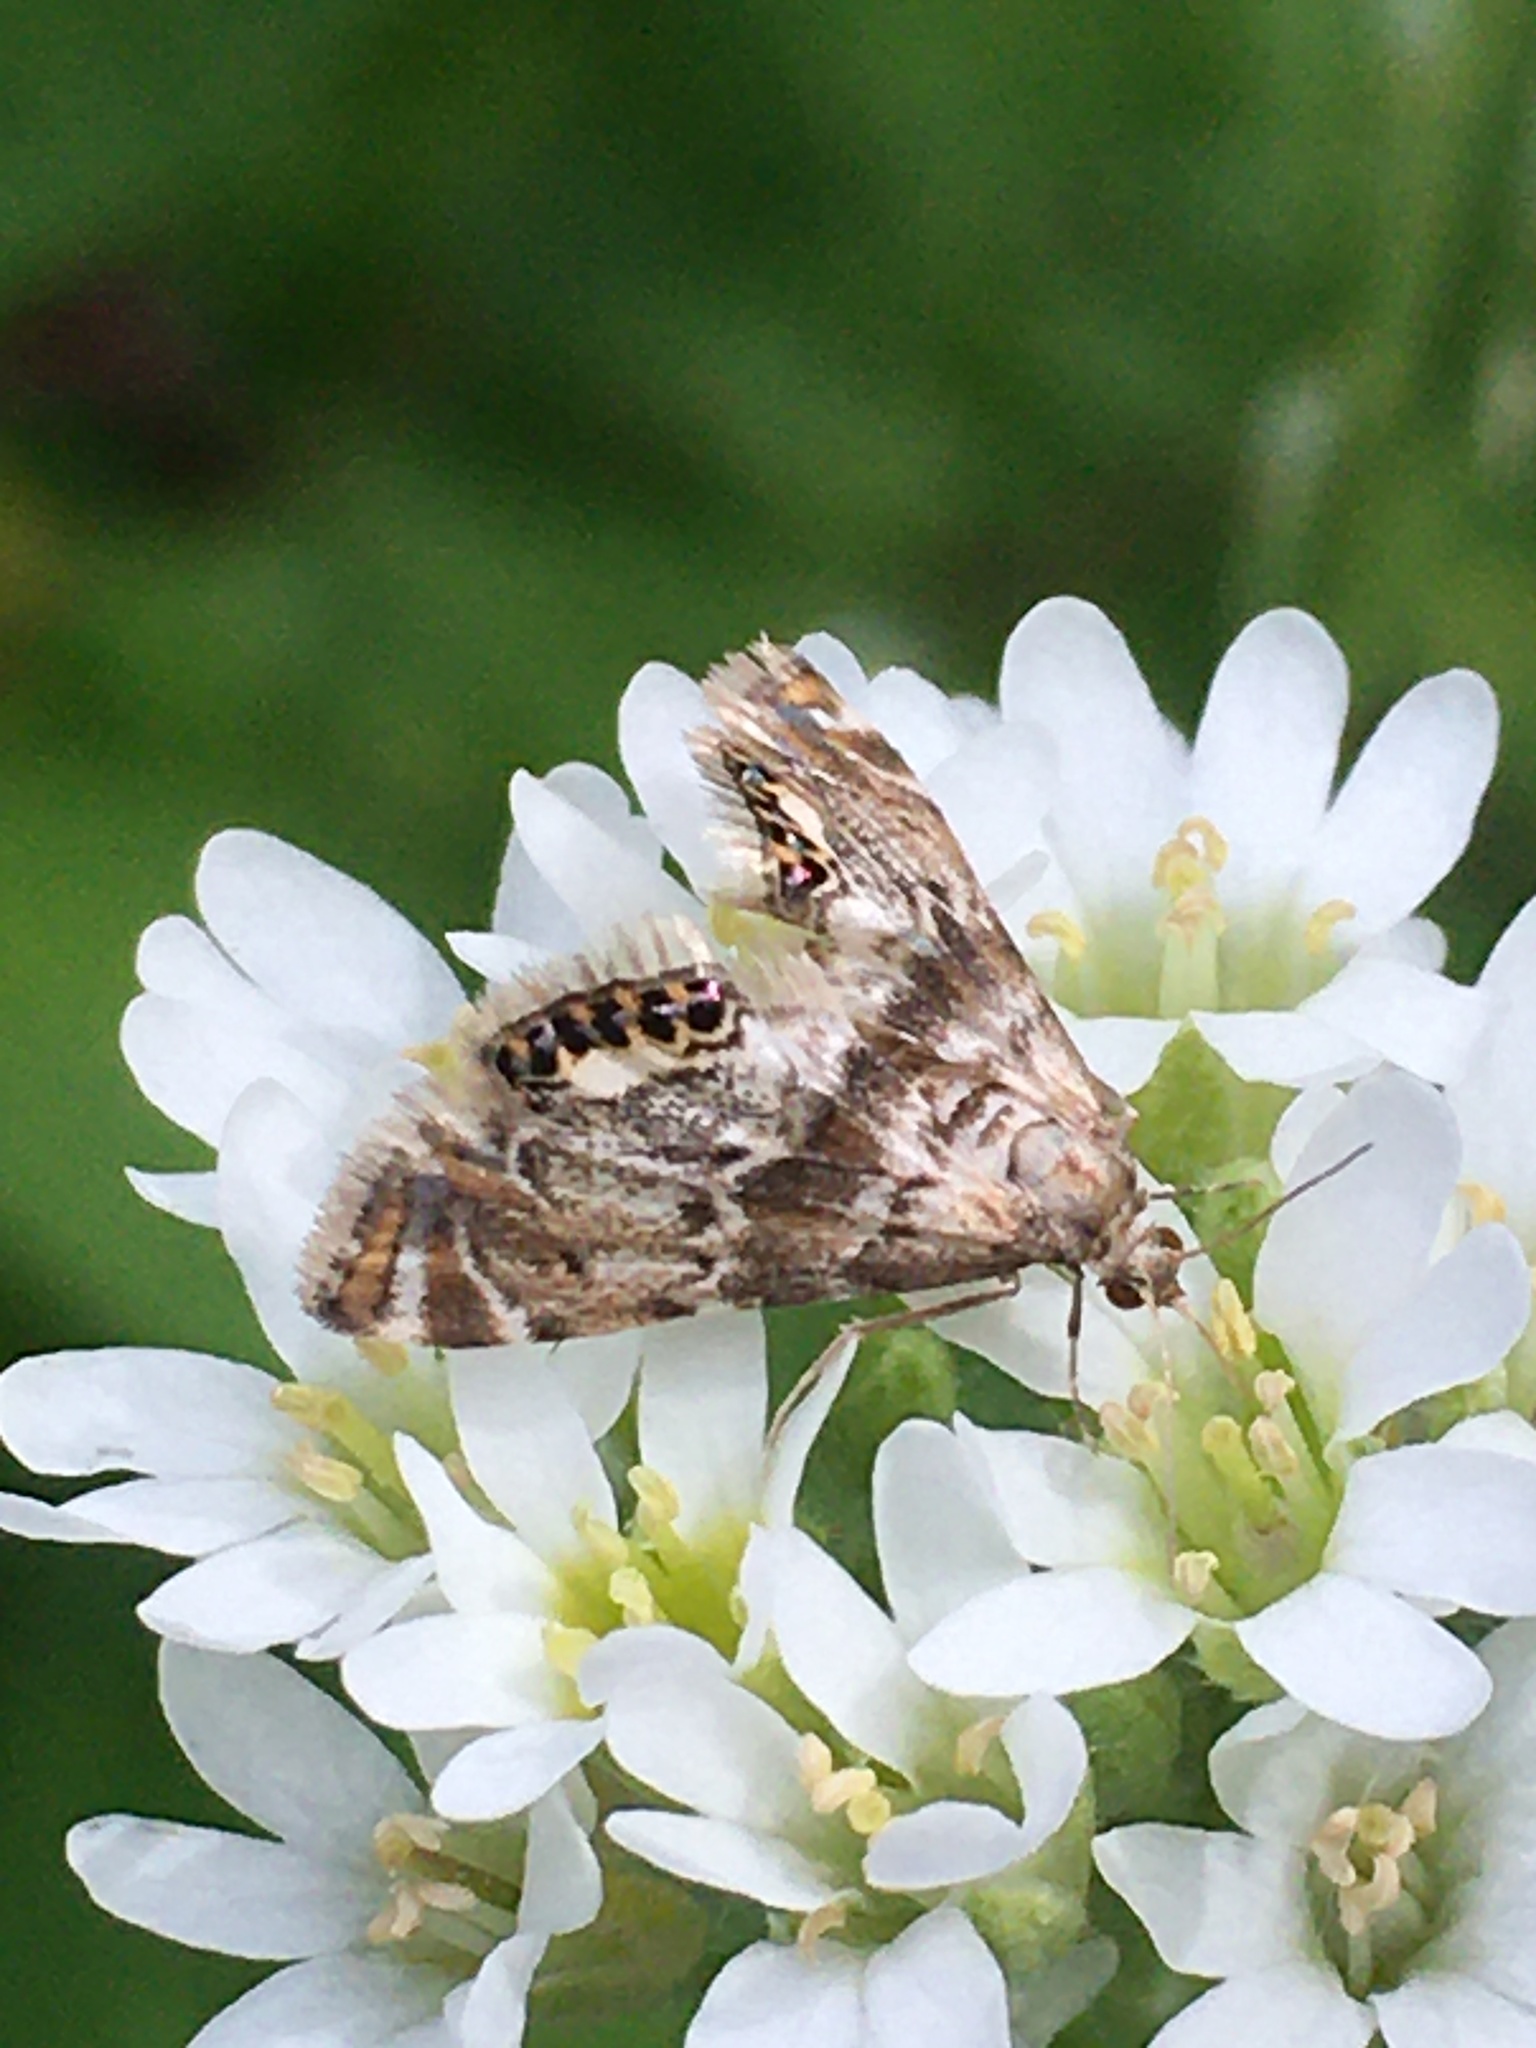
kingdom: Animalia
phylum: Arthropoda
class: Insecta
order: Lepidoptera
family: Crambidae
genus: Petrophila
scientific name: Petrophila fulicalis
